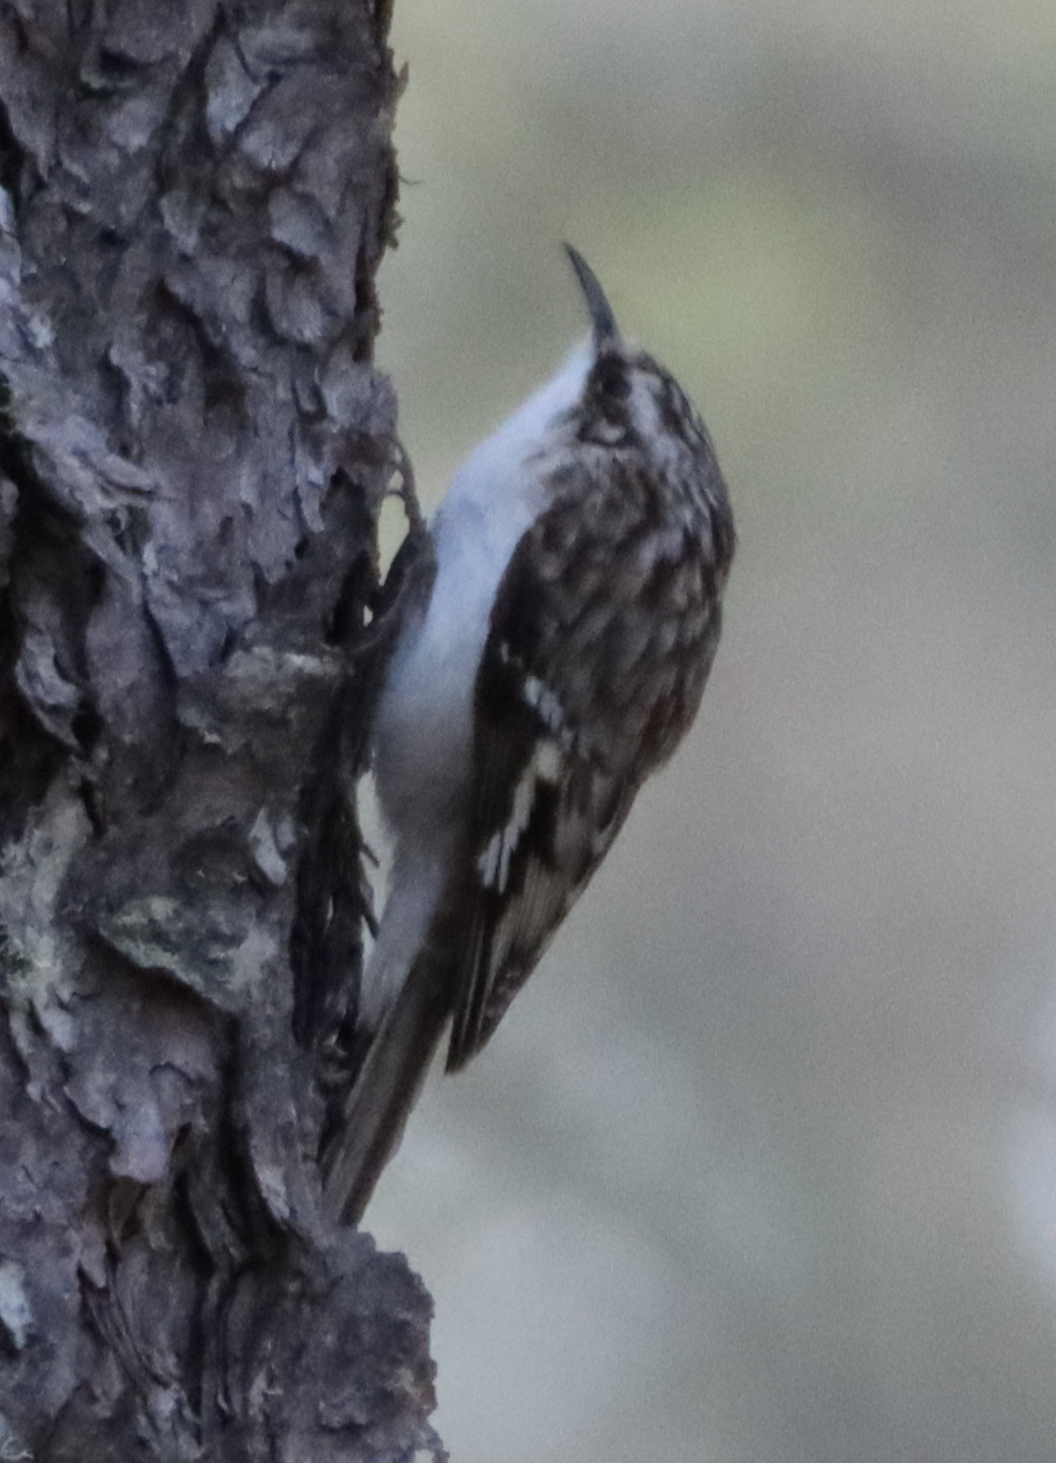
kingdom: Animalia
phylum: Chordata
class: Aves
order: Passeriformes
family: Certhiidae
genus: Certhia
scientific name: Certhia americana
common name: Brown creeper
